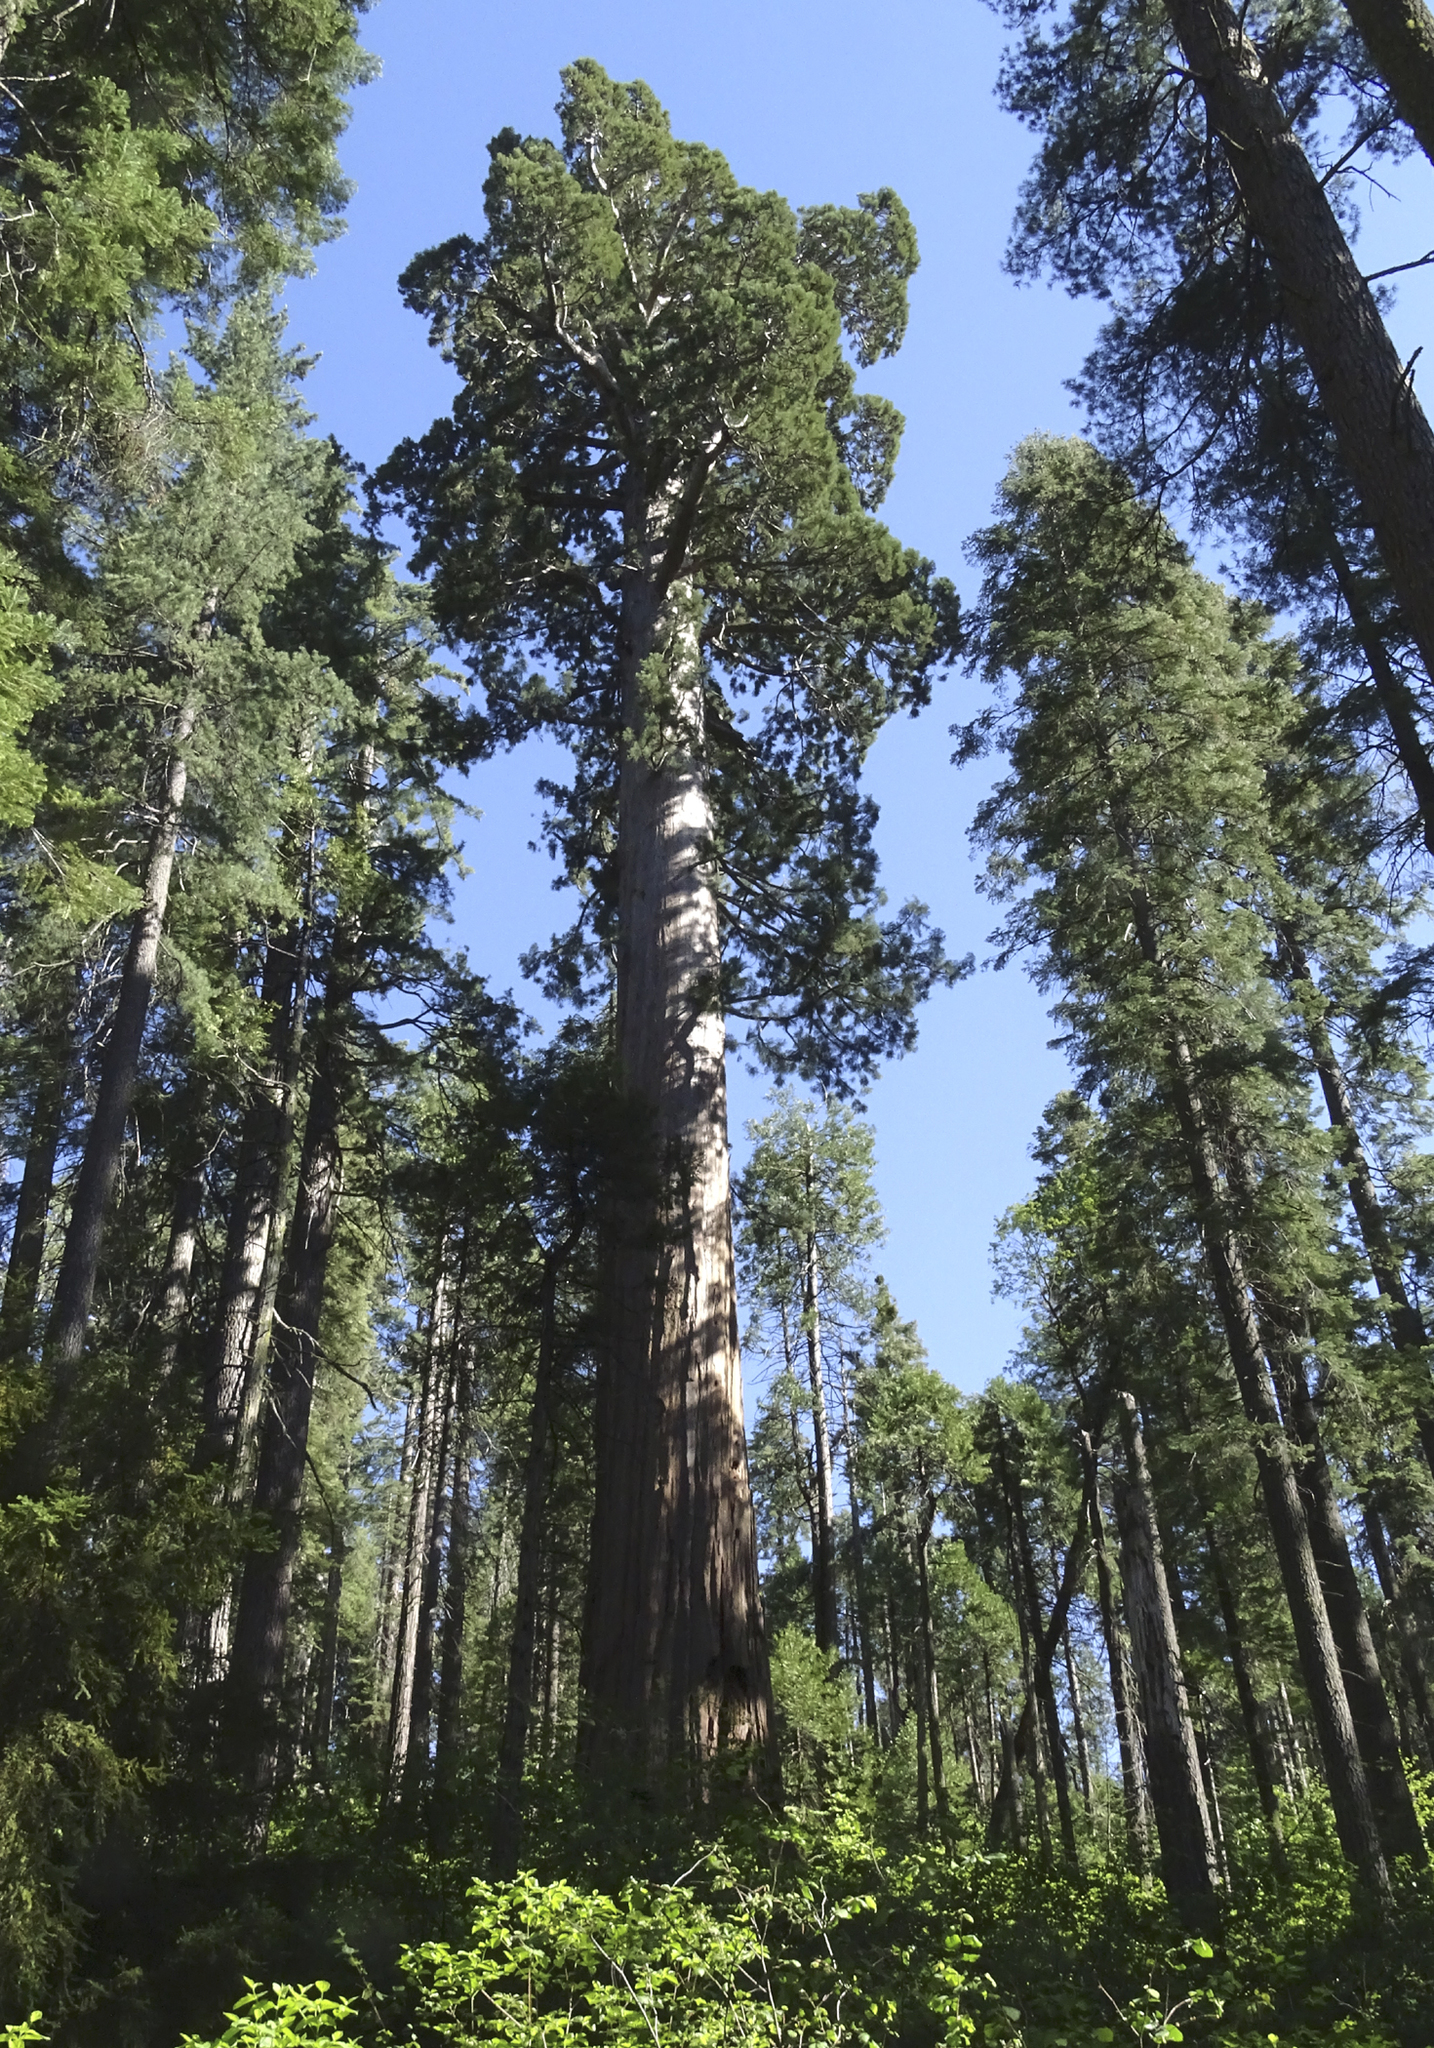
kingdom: Plantae
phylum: Tracheophyta
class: Pinopsida
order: Pinales
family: Cupressaceae
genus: Sequoiadendron
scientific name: Sequoiadendron giganteum
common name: Wellingtonia
